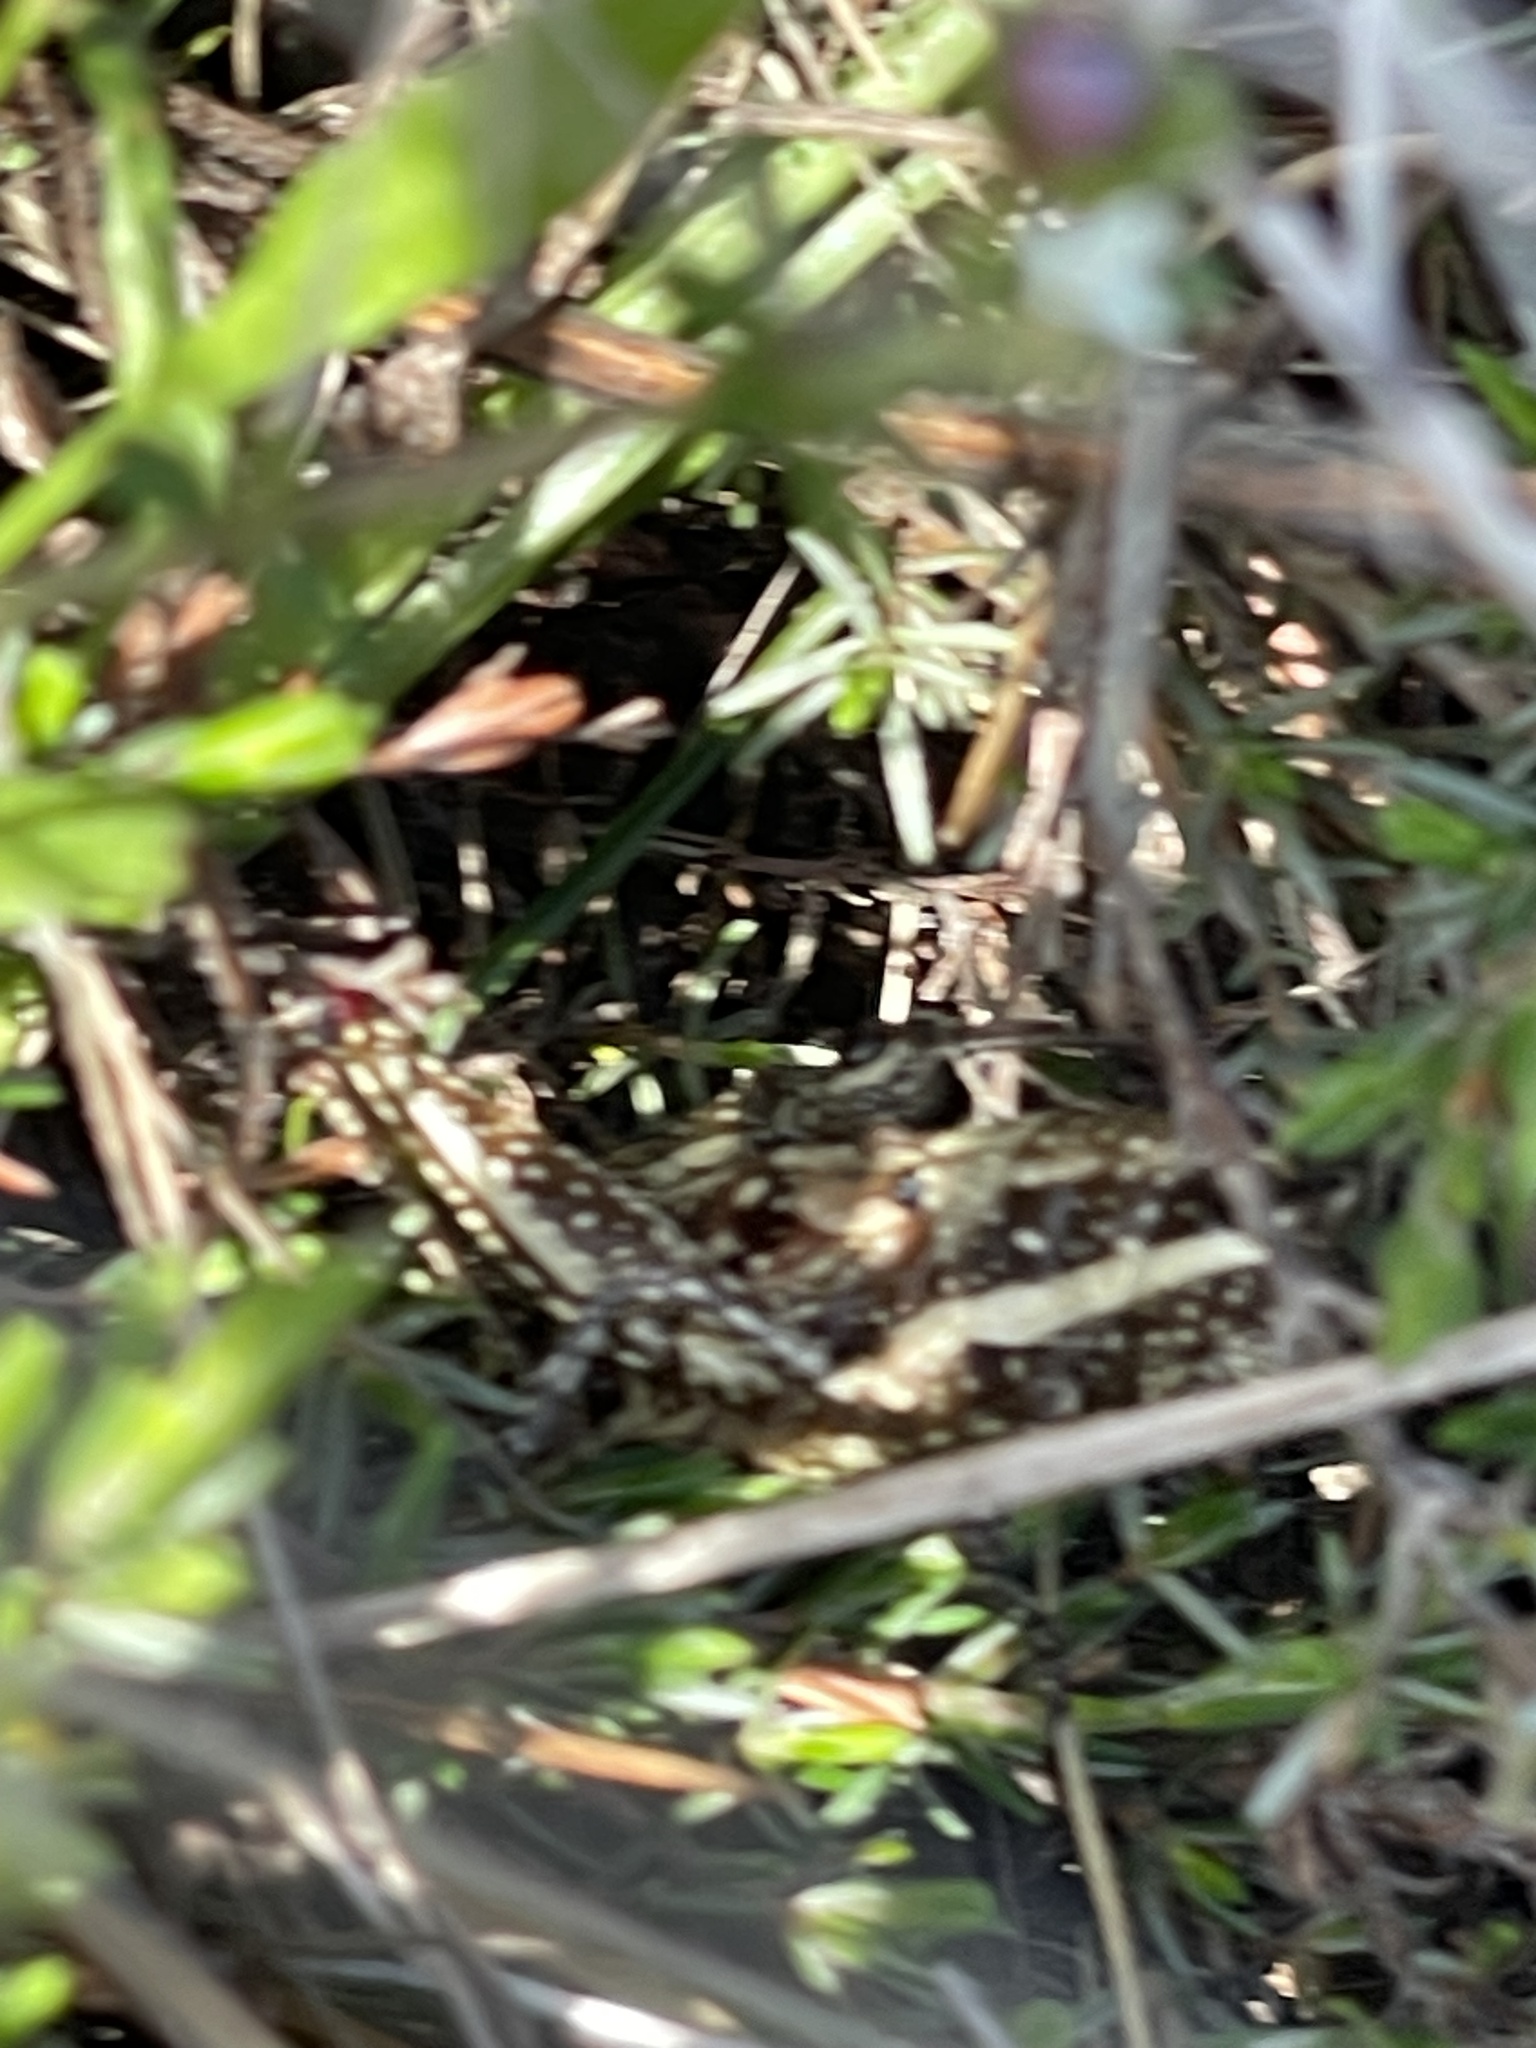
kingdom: Animalia
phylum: Arthropoda
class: Insecta
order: Orthoptera
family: Pyrgomorphidae
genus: Monistria
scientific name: Monistria concinna
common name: Southern pyrgomorph
